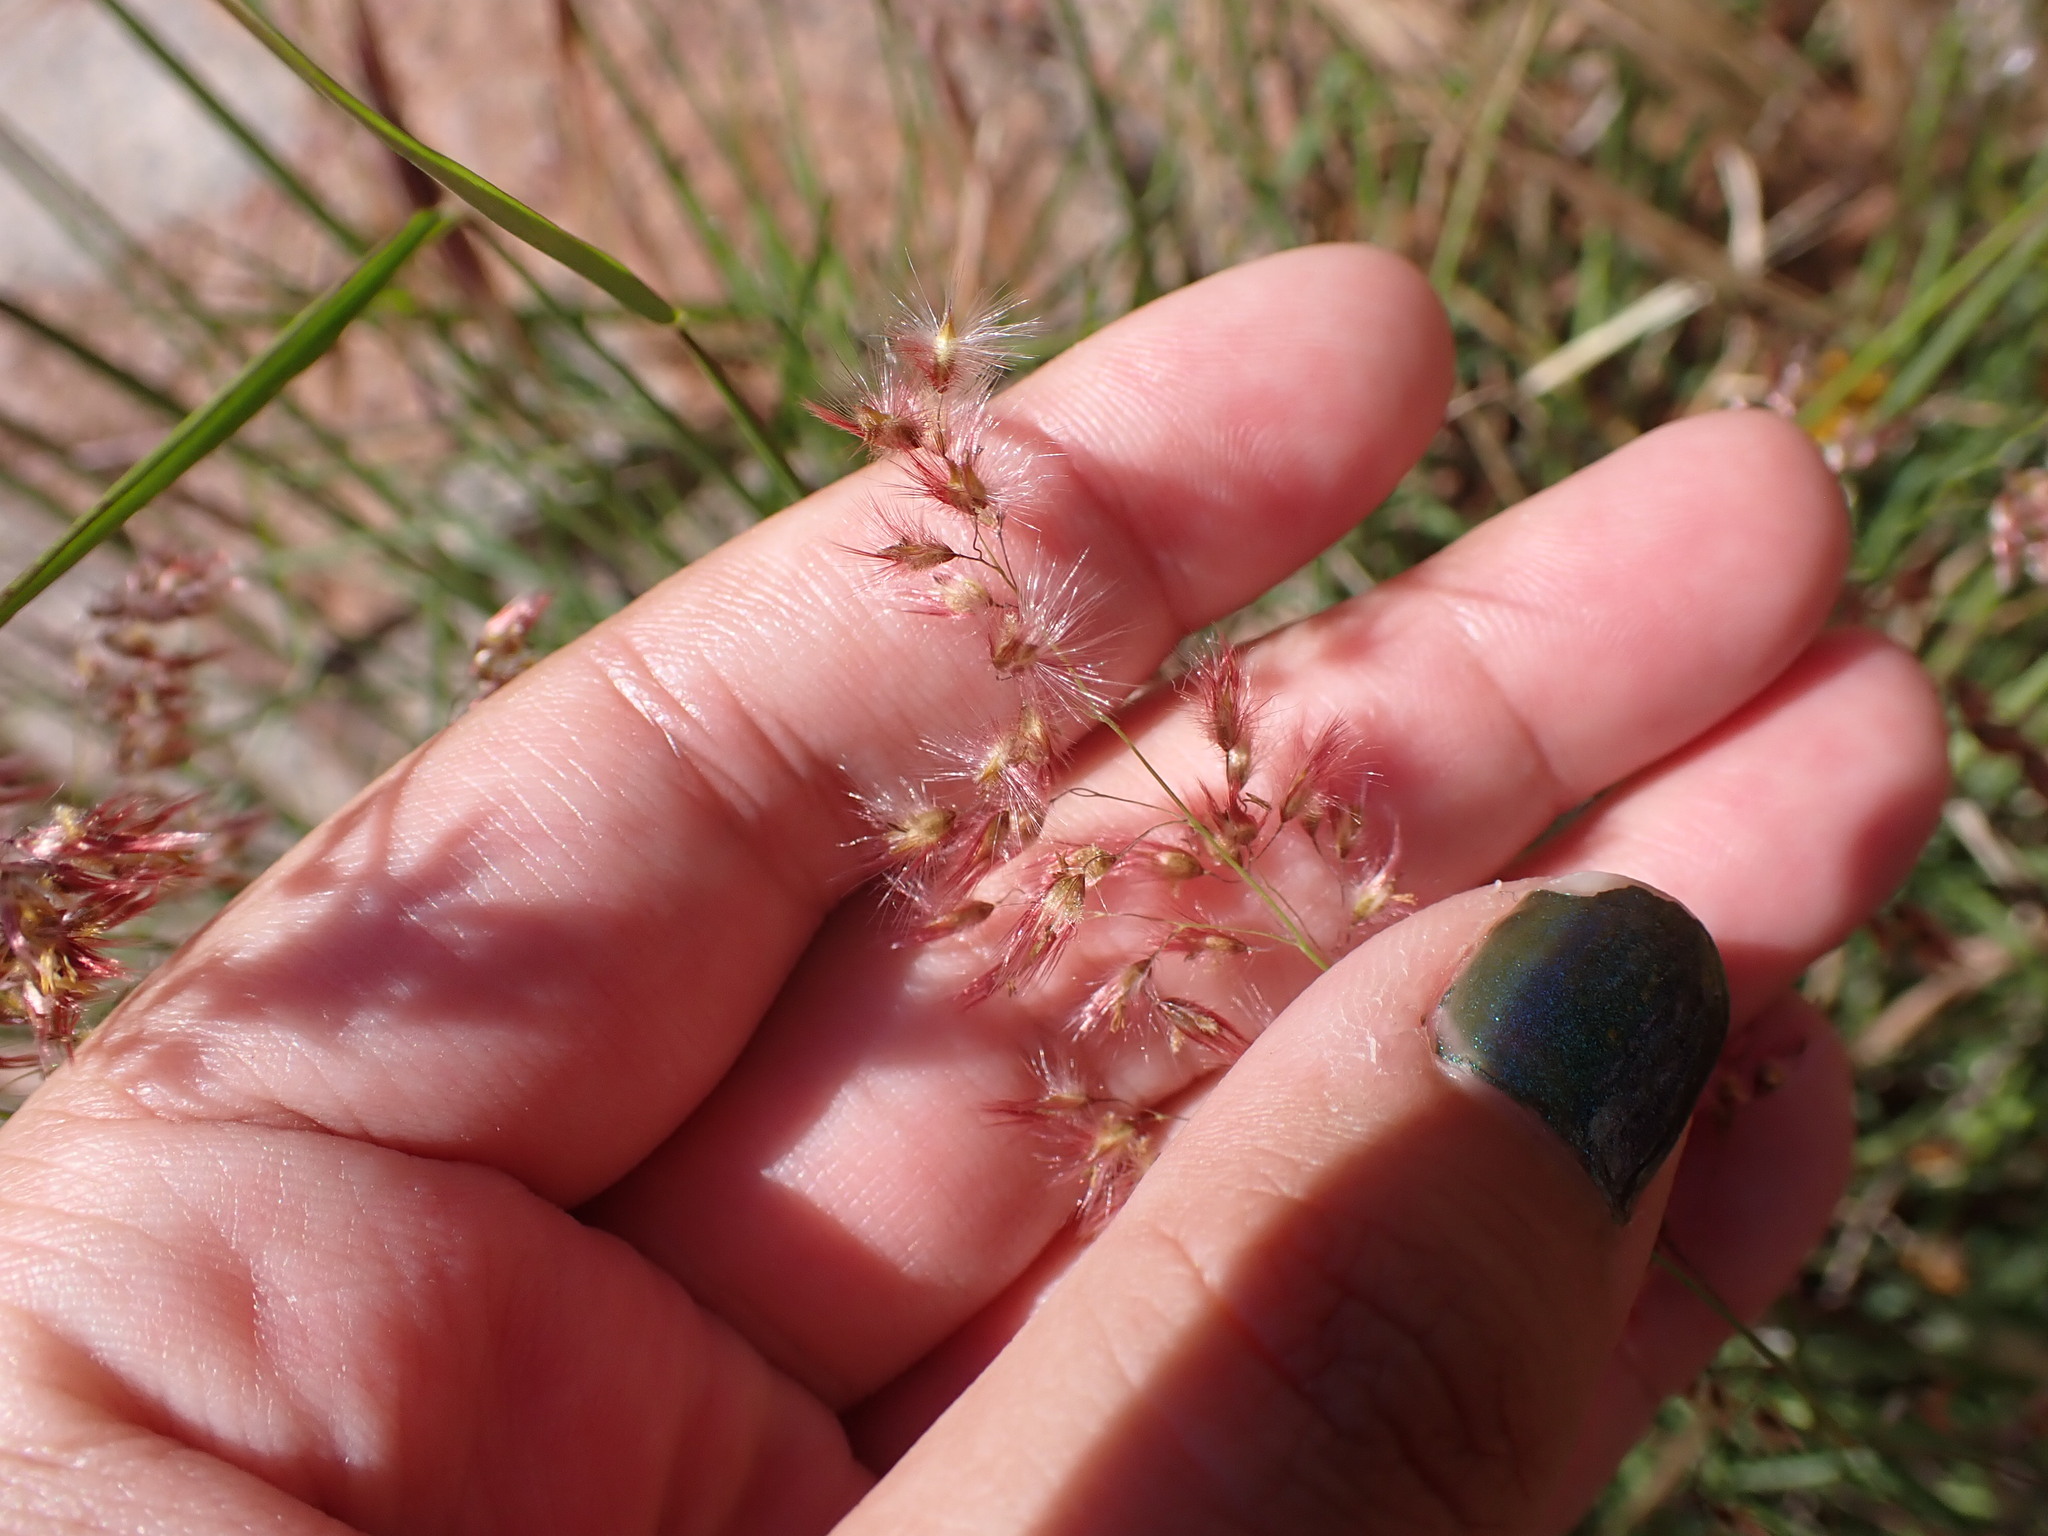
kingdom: Plantae
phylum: Tracheophyta
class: Liliopsida
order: Poales
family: Poaceae
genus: Melinis
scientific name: Melinis repens
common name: Rose natal grass
